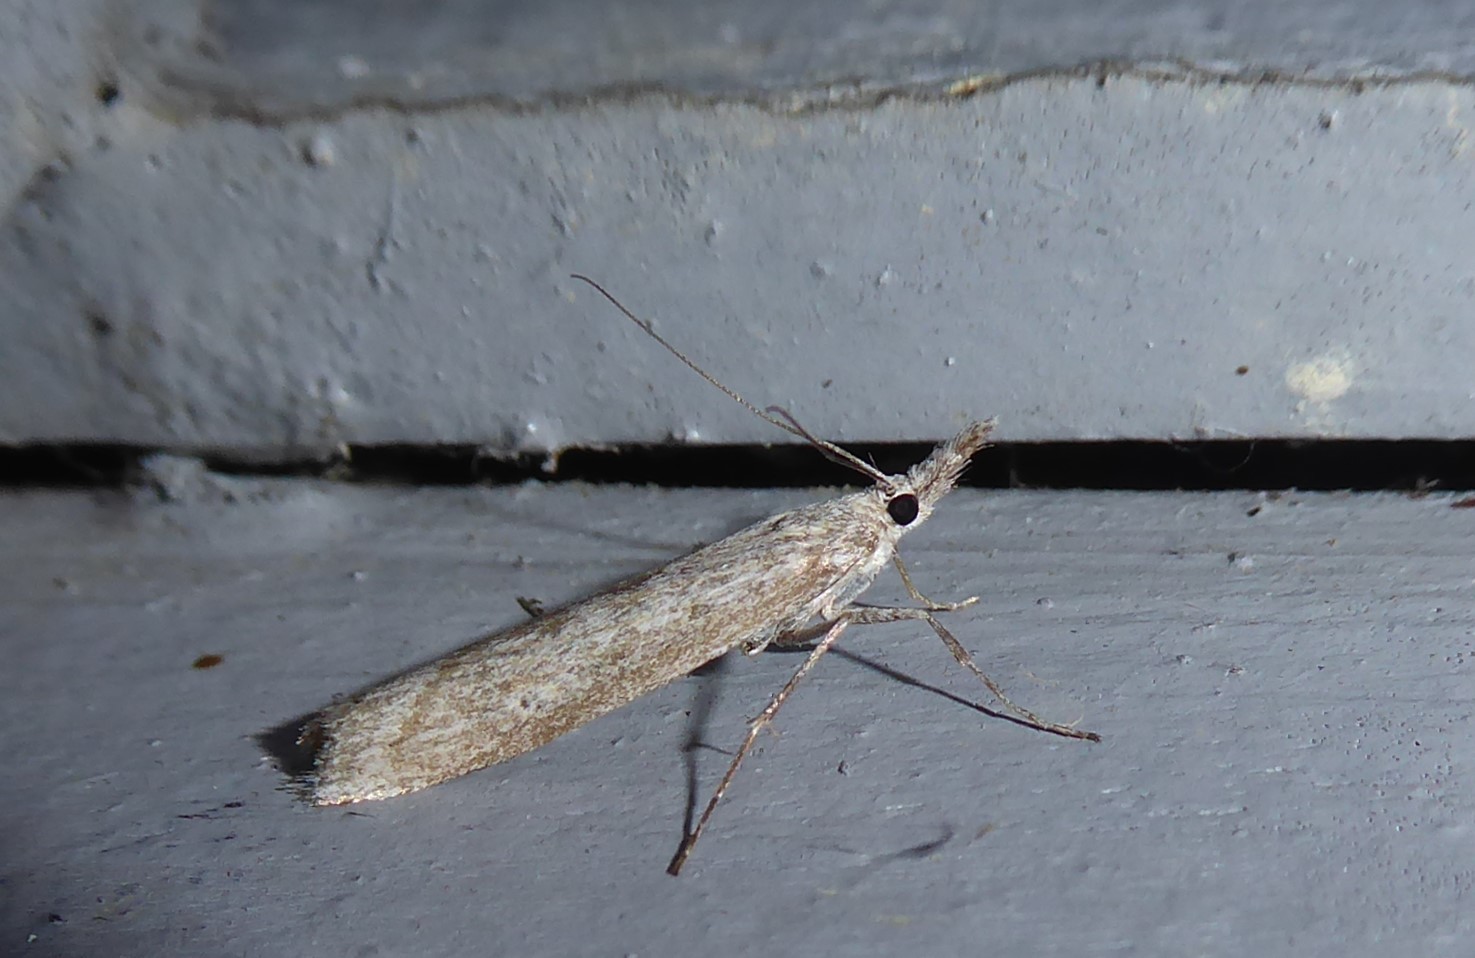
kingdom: Animalia
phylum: Arthropoda
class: Insecta
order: Lepidoptera
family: Crambidae
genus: Orocrambus
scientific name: Orocrambus cyclopicus
